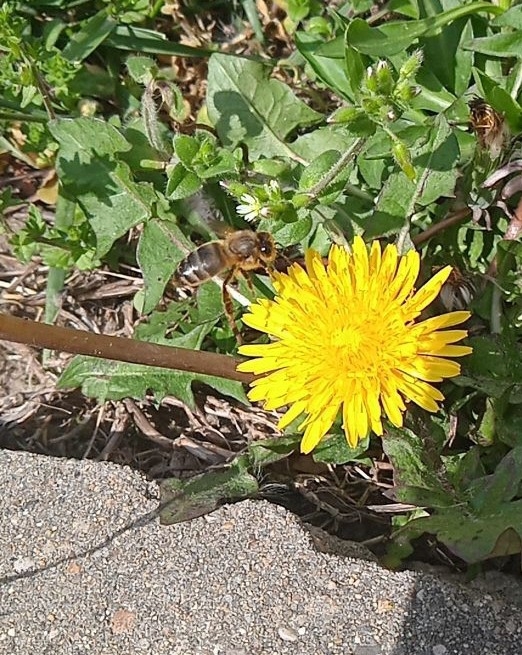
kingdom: Animalia
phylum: Arthropoda
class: Insecta
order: Hymenoptera
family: Apidae
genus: Apis
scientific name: Apis mellifera
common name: Honey bee
